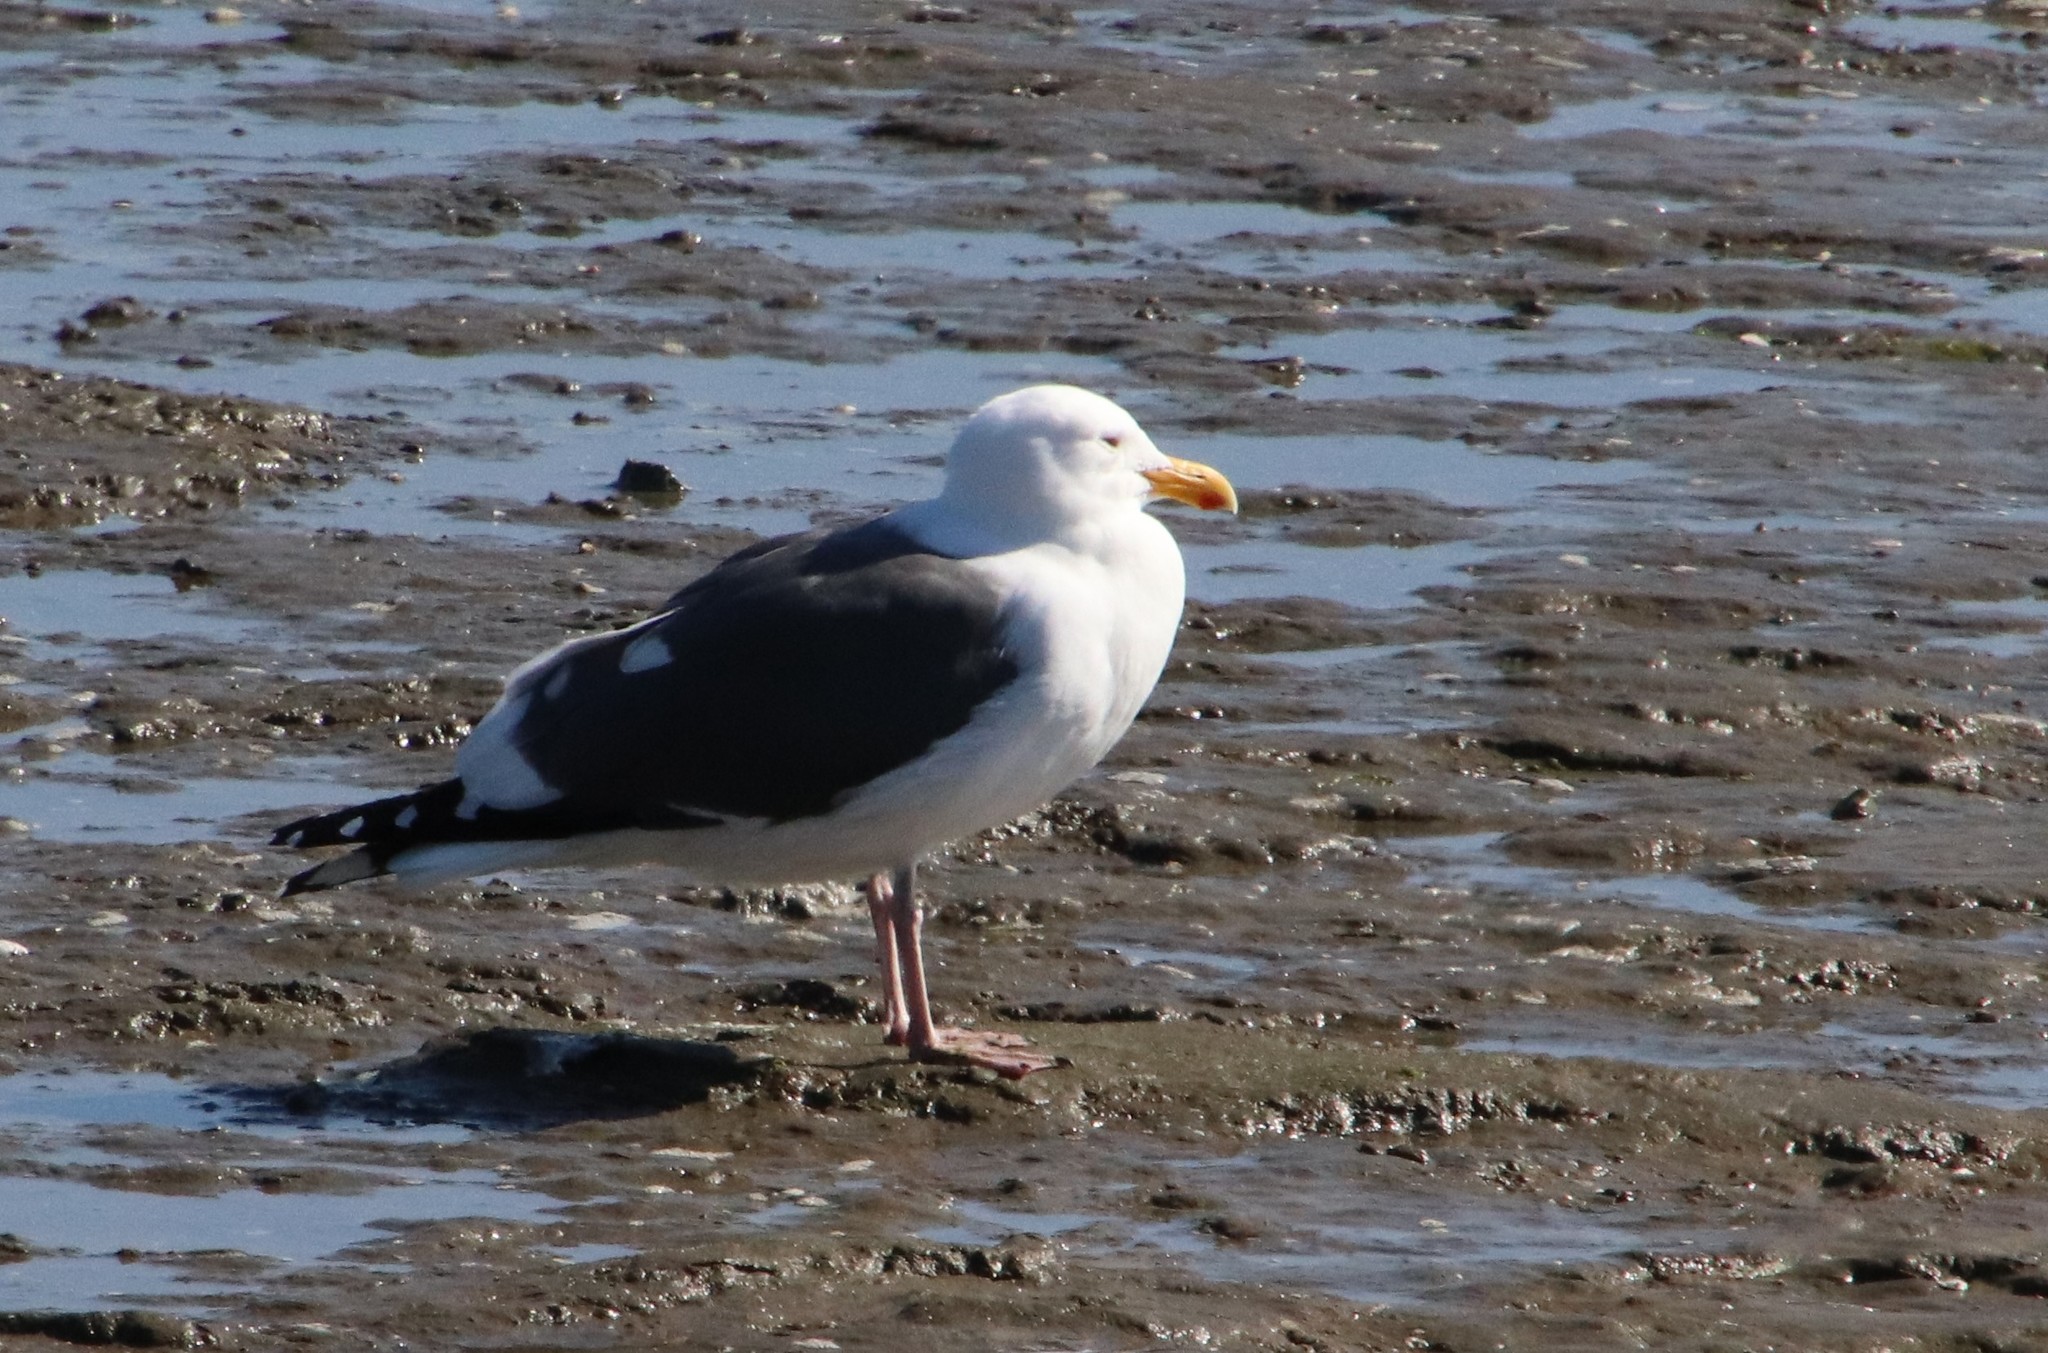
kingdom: Animalia
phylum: Chordata
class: Aves
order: Charadriiformes
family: Laridae
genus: Larus
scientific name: Larus occidentalis
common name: Western gull
